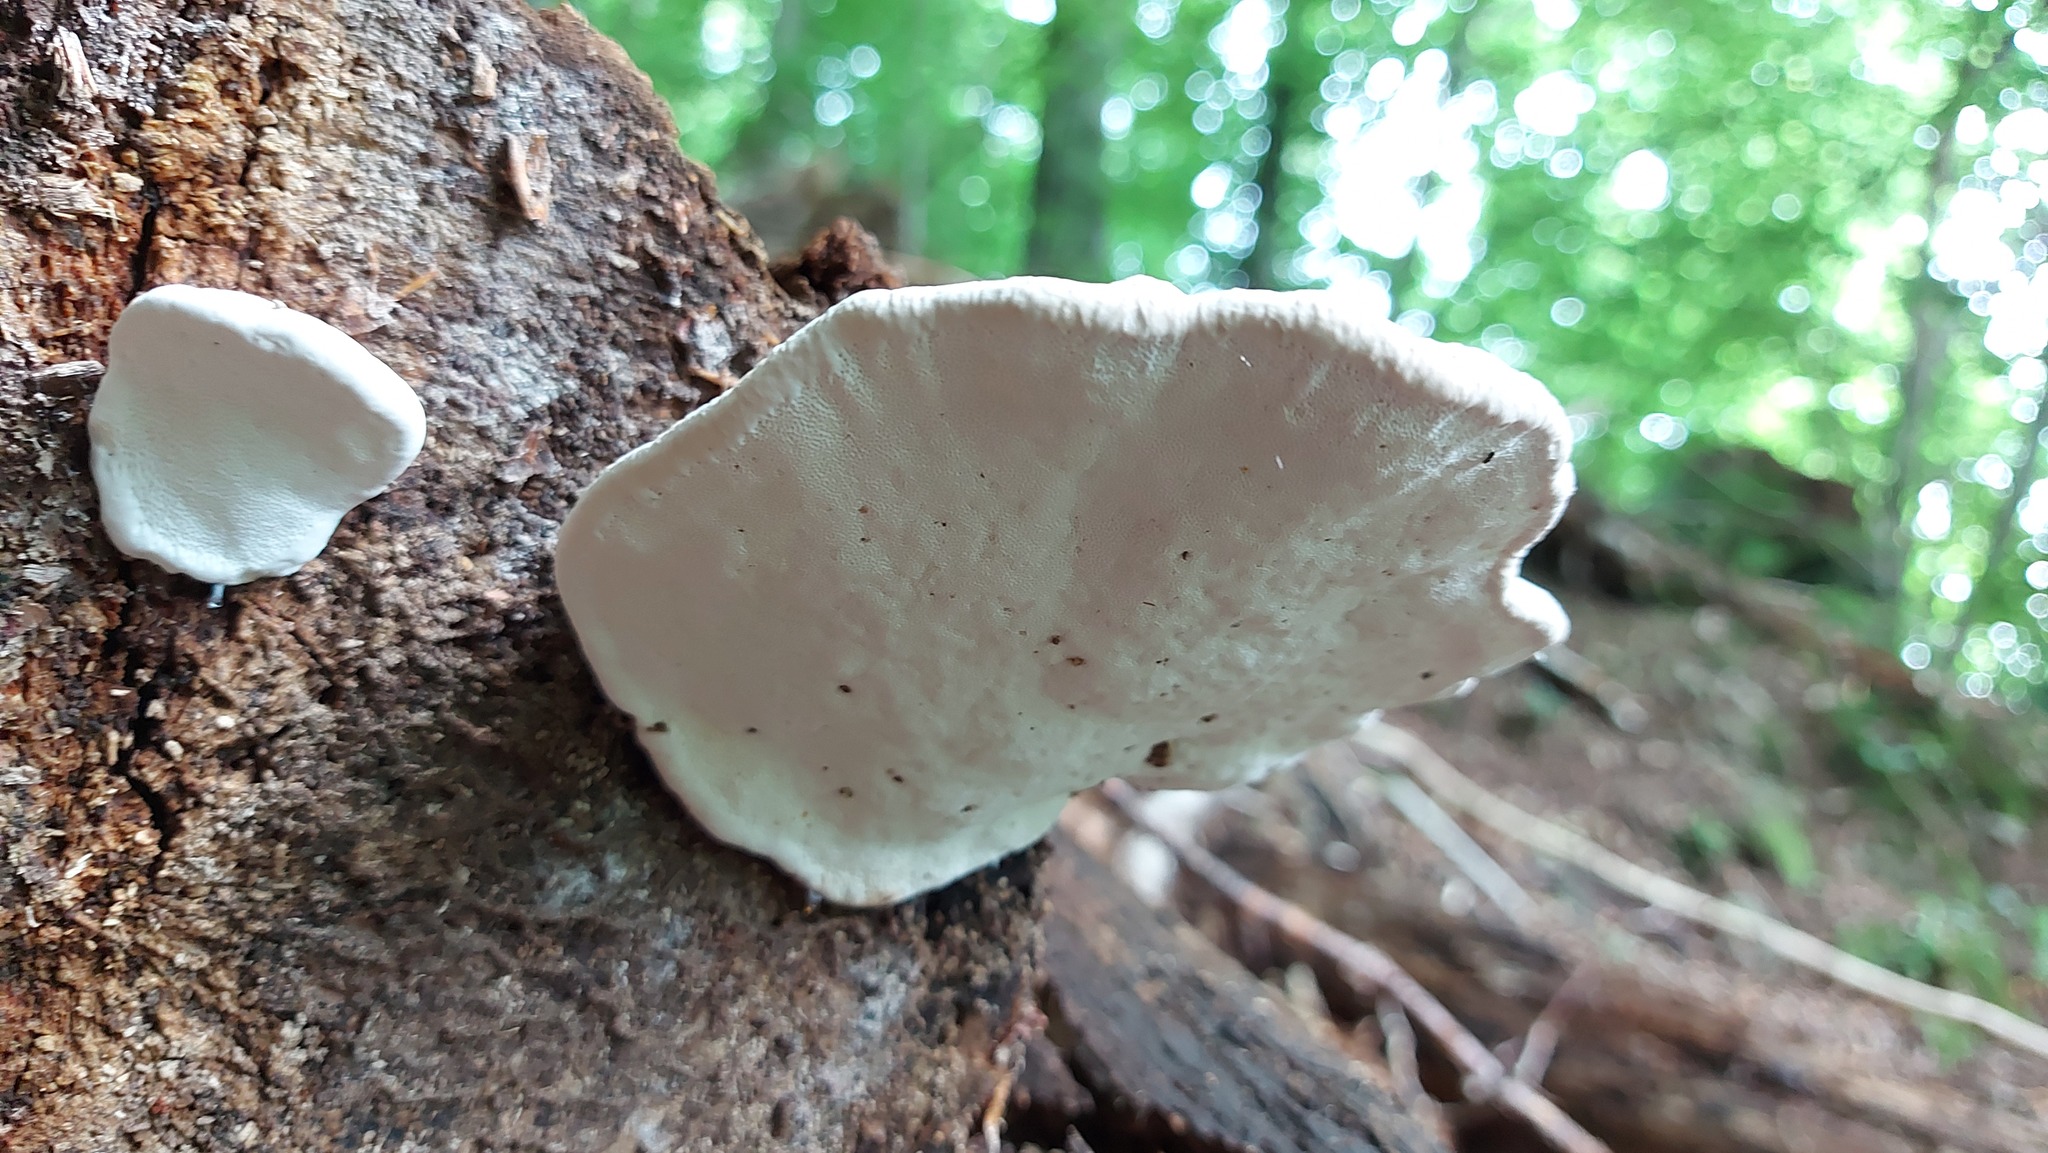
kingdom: Fungi
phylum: Basidiomycota
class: Agaricomycetes
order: Polyporales
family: Fomitopsidaceae
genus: Fomitopsis
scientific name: Fomitopsis pinicola
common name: Red-belted bracket
